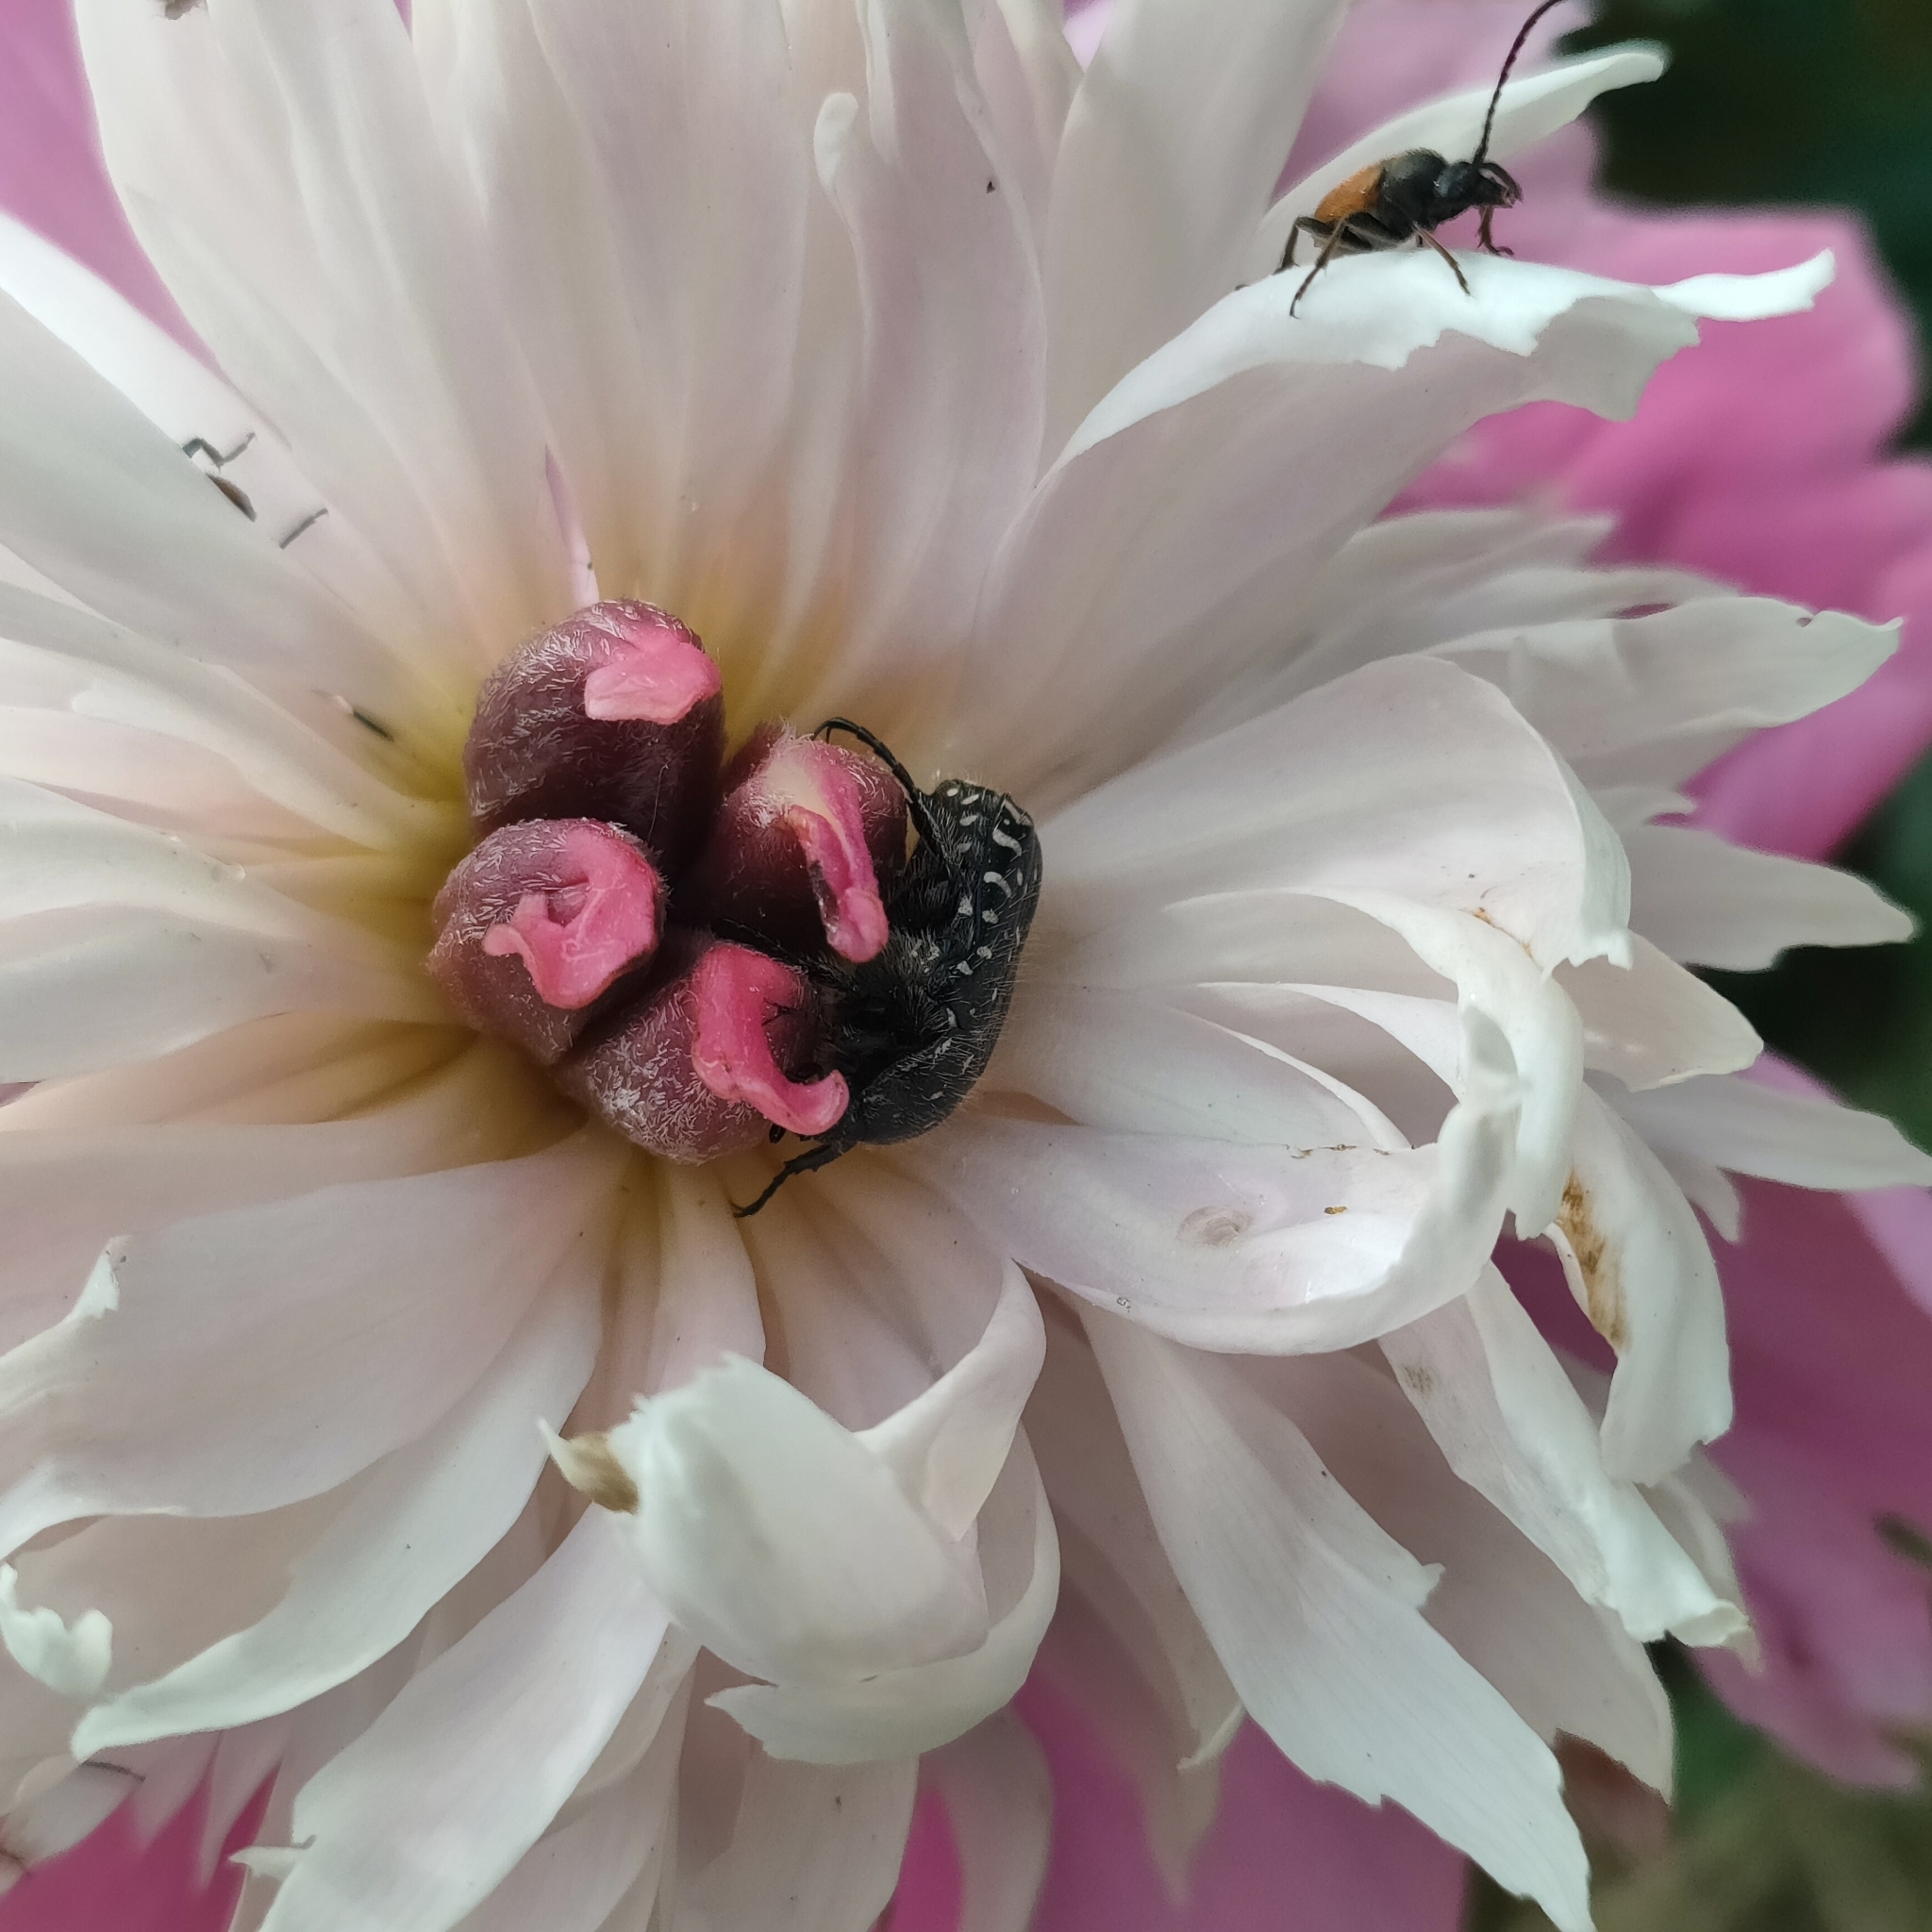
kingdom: Animalia
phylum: Arthropoda
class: Insecta
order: Coleoptera
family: Scarabaeidae
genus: Oxythyrea
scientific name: Oxythyrea funesta
